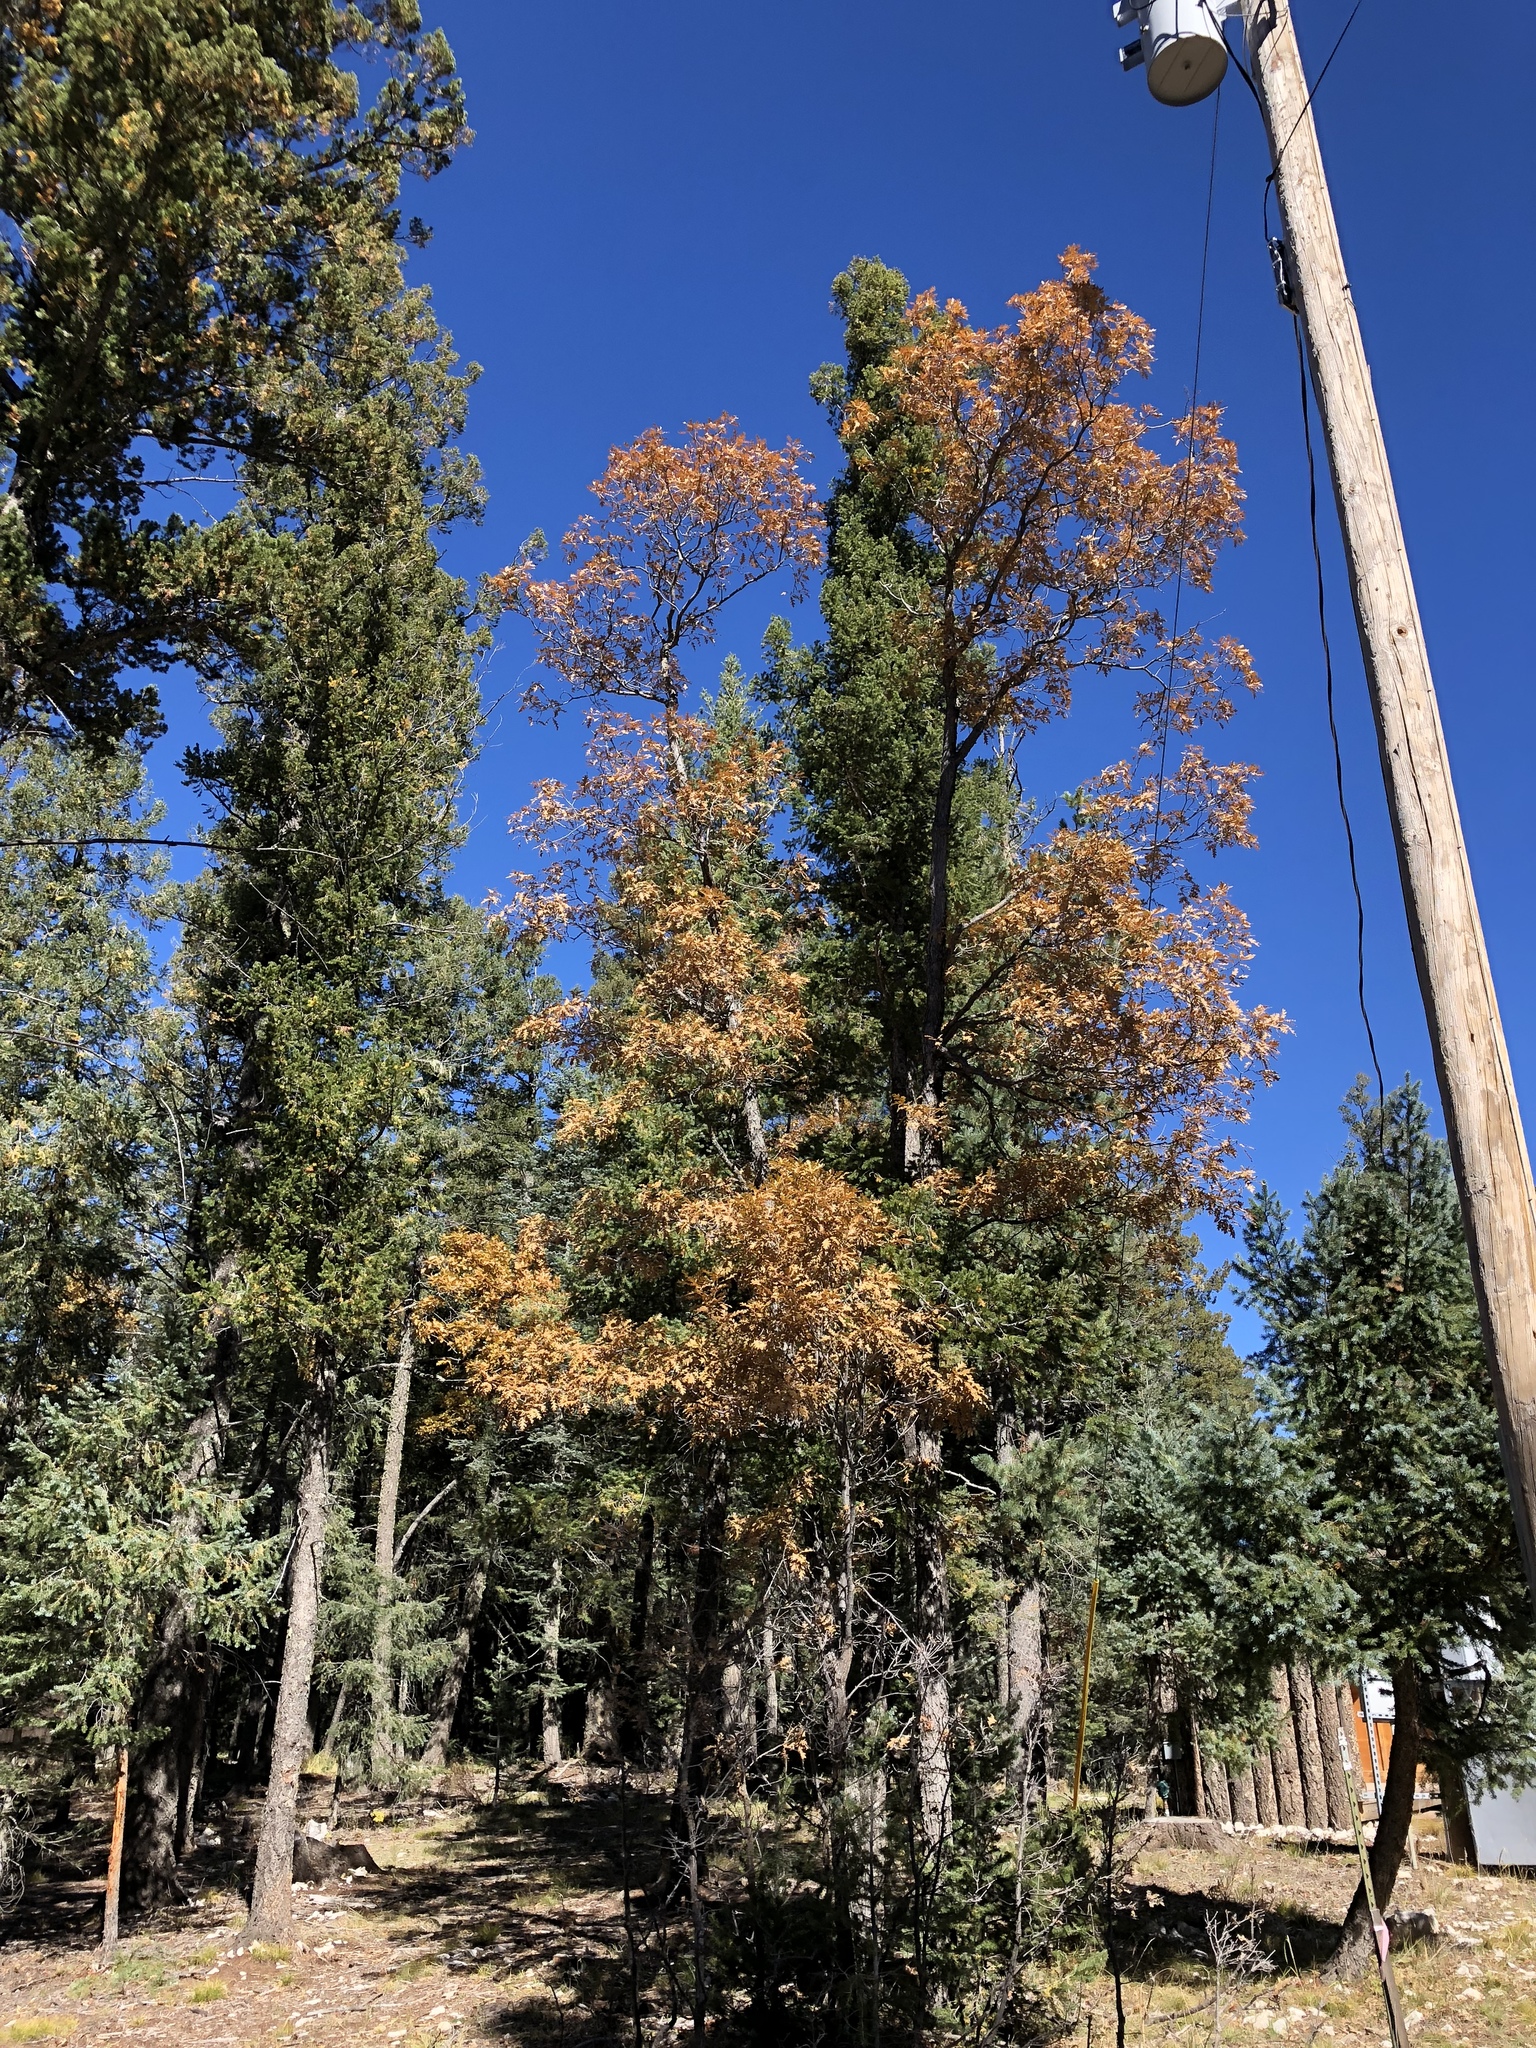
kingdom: Plantae
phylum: Tracheophyta
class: Magnoliopsida
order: Fagales
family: Fagaceae
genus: Quercus
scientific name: Quercus gambelii
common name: Gambel oak
